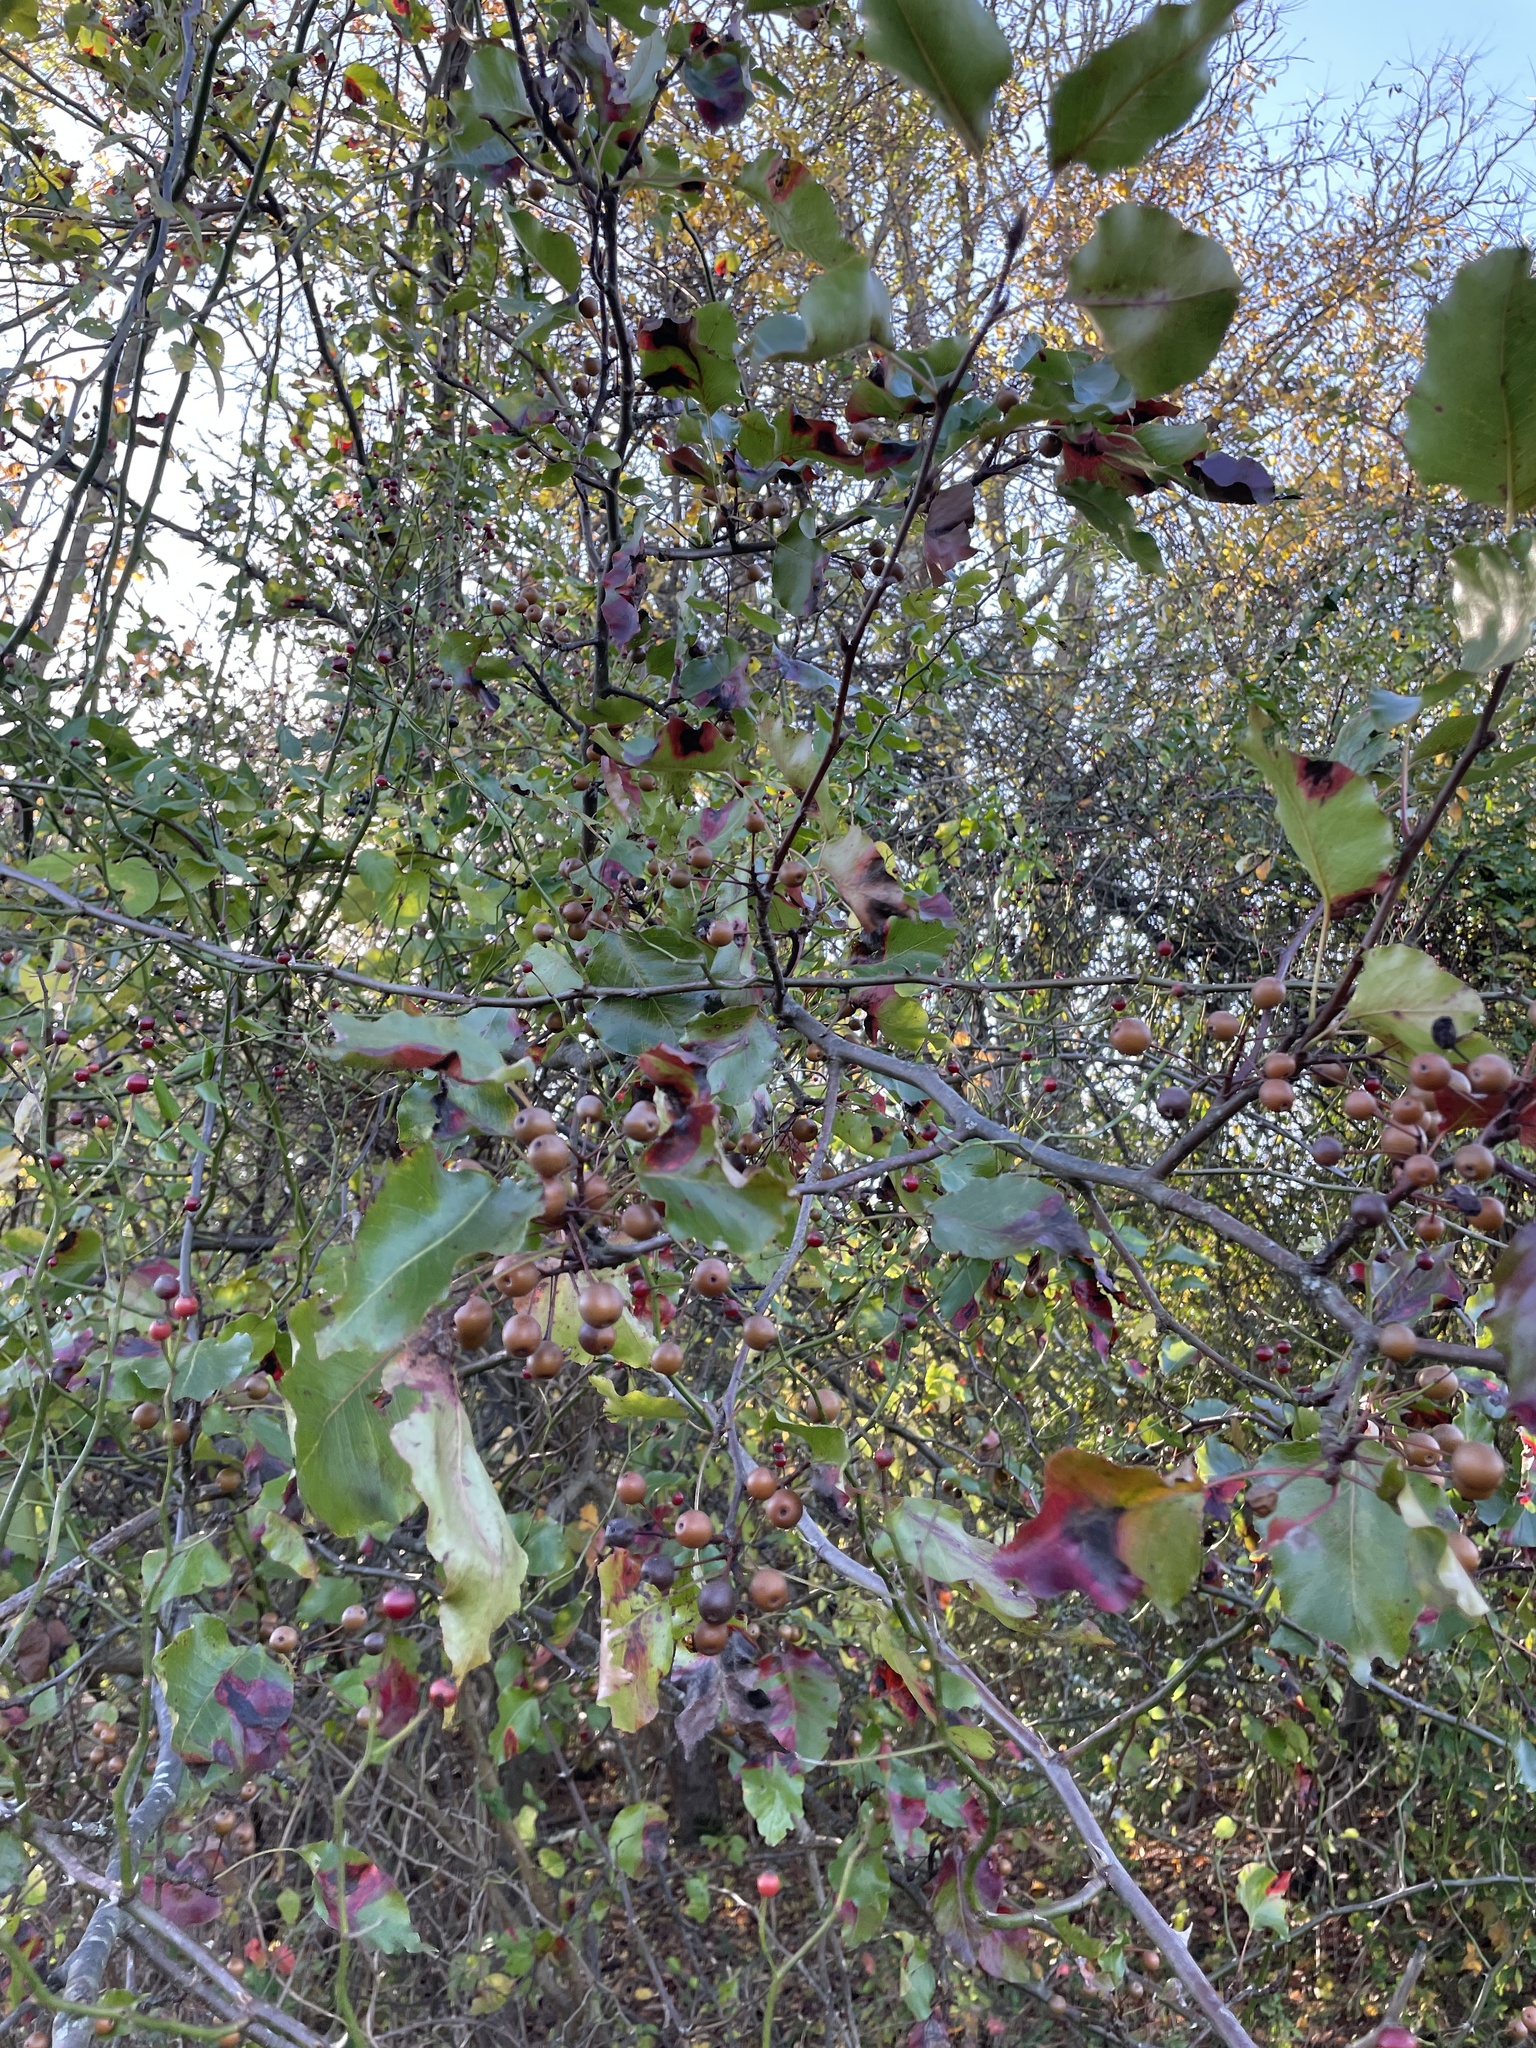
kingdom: Plantae
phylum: Tracheophyta
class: Magnoliopsida
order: Rosales
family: Rosaceae
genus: Pyrus
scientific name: Pyrus calleryana
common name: Callery pear
